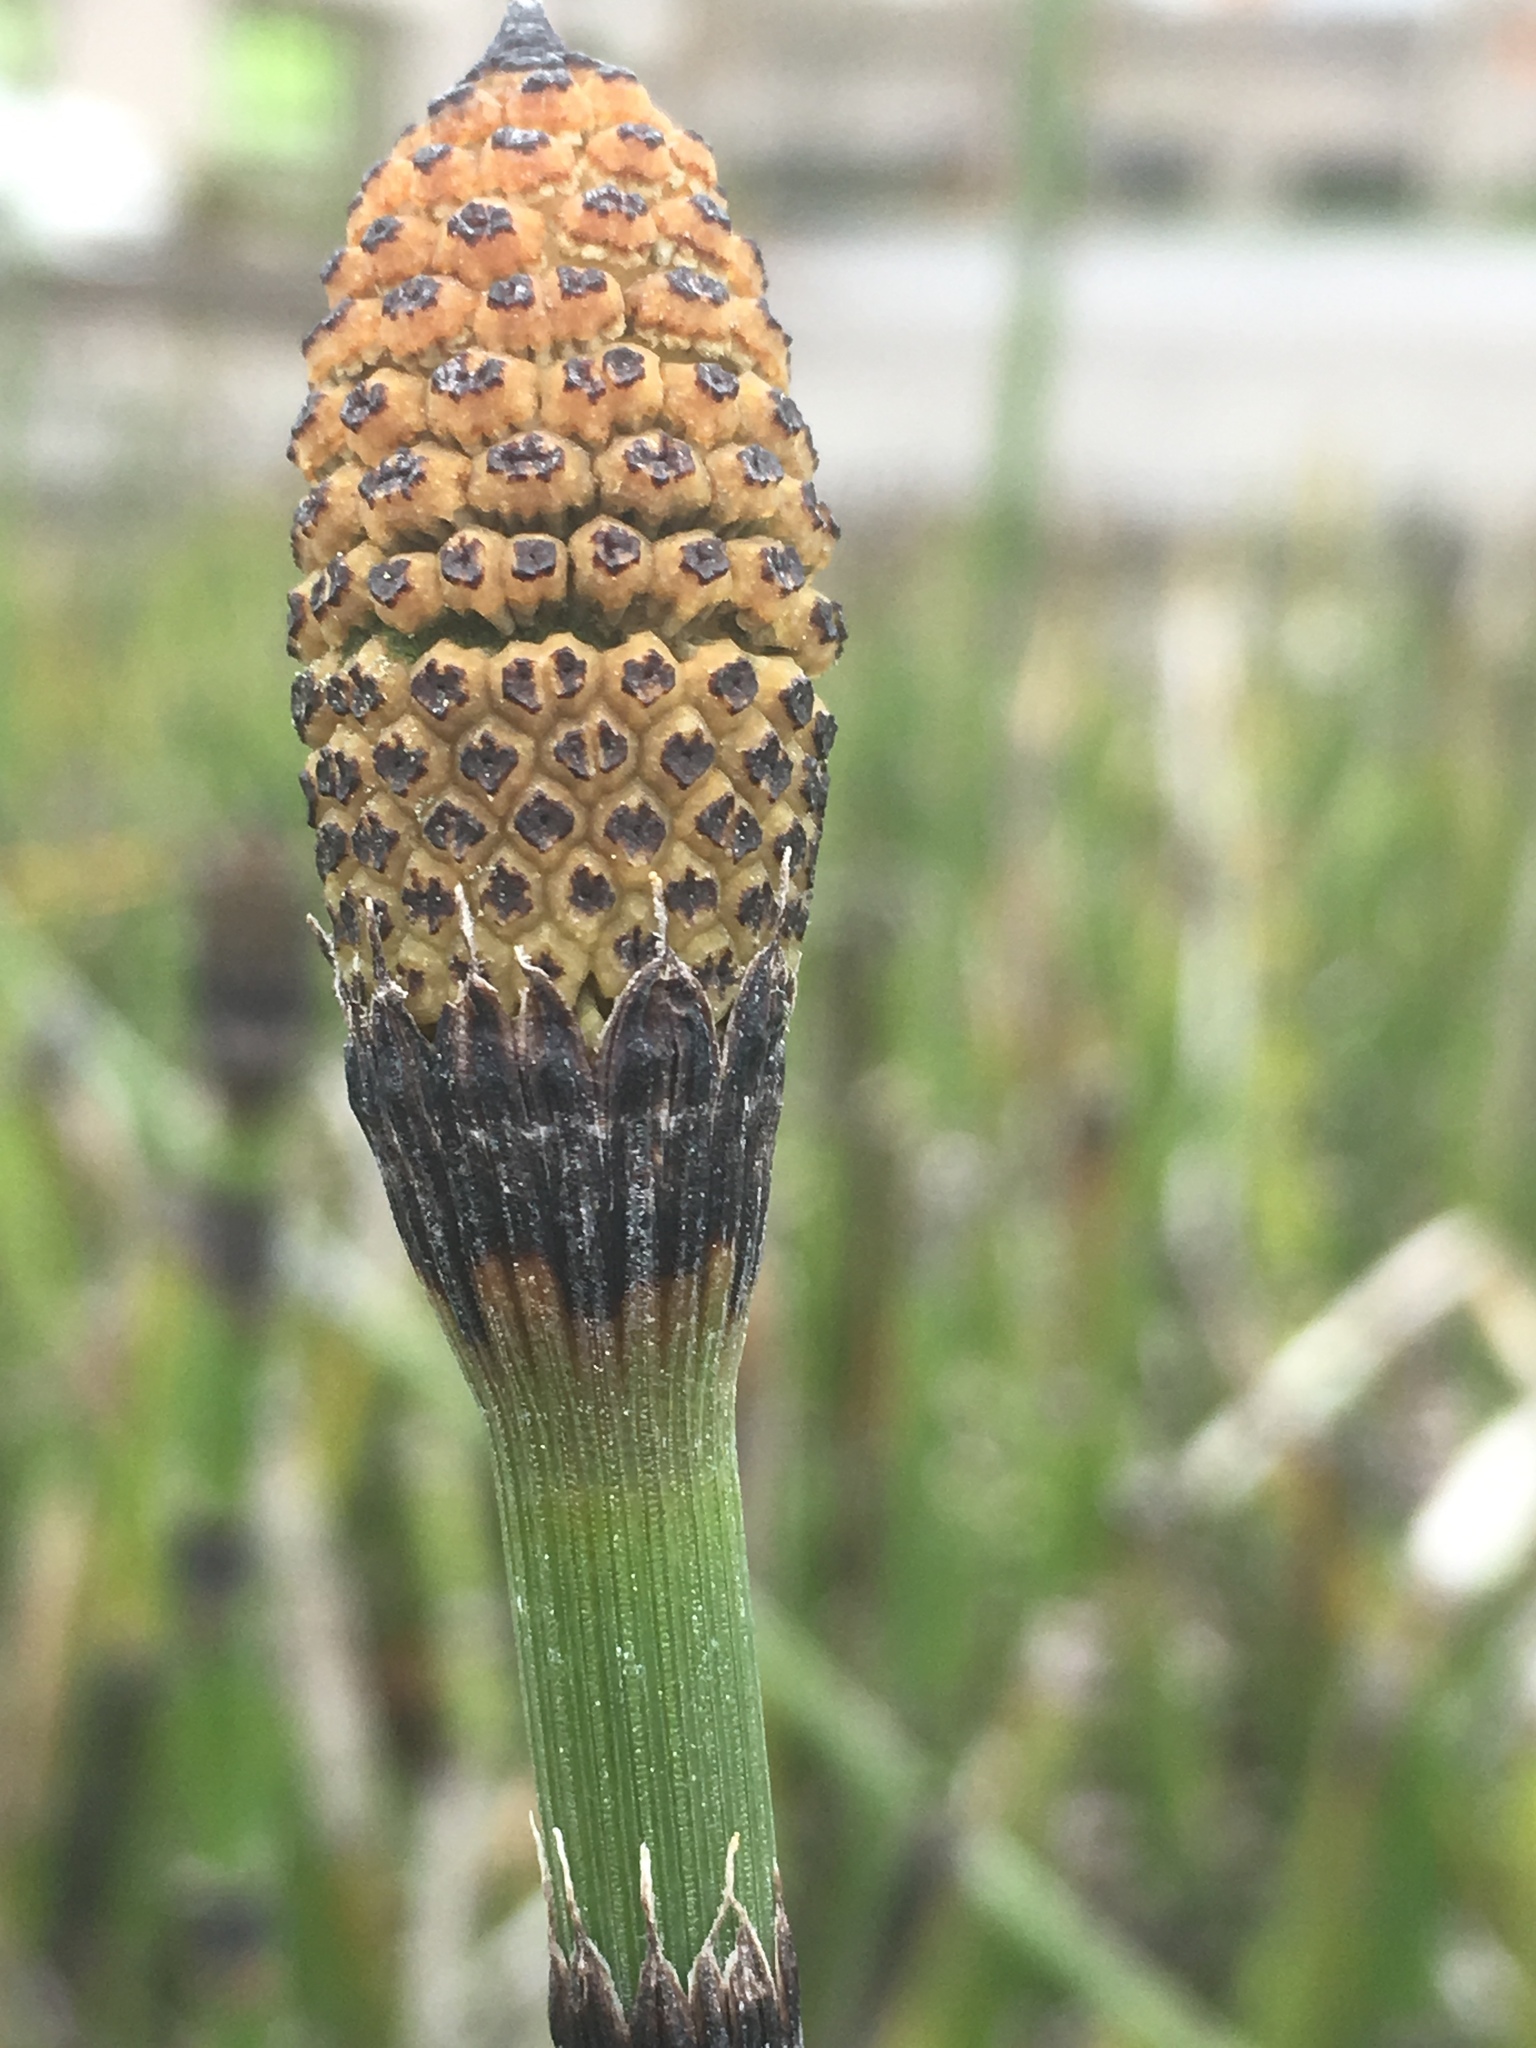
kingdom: Plantae
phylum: Tracheophyta
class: Polypodiopsida
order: Equisetales
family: Equisetaceae
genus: Equisetum
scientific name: Equisetum hyemale
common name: Rough horsetail
